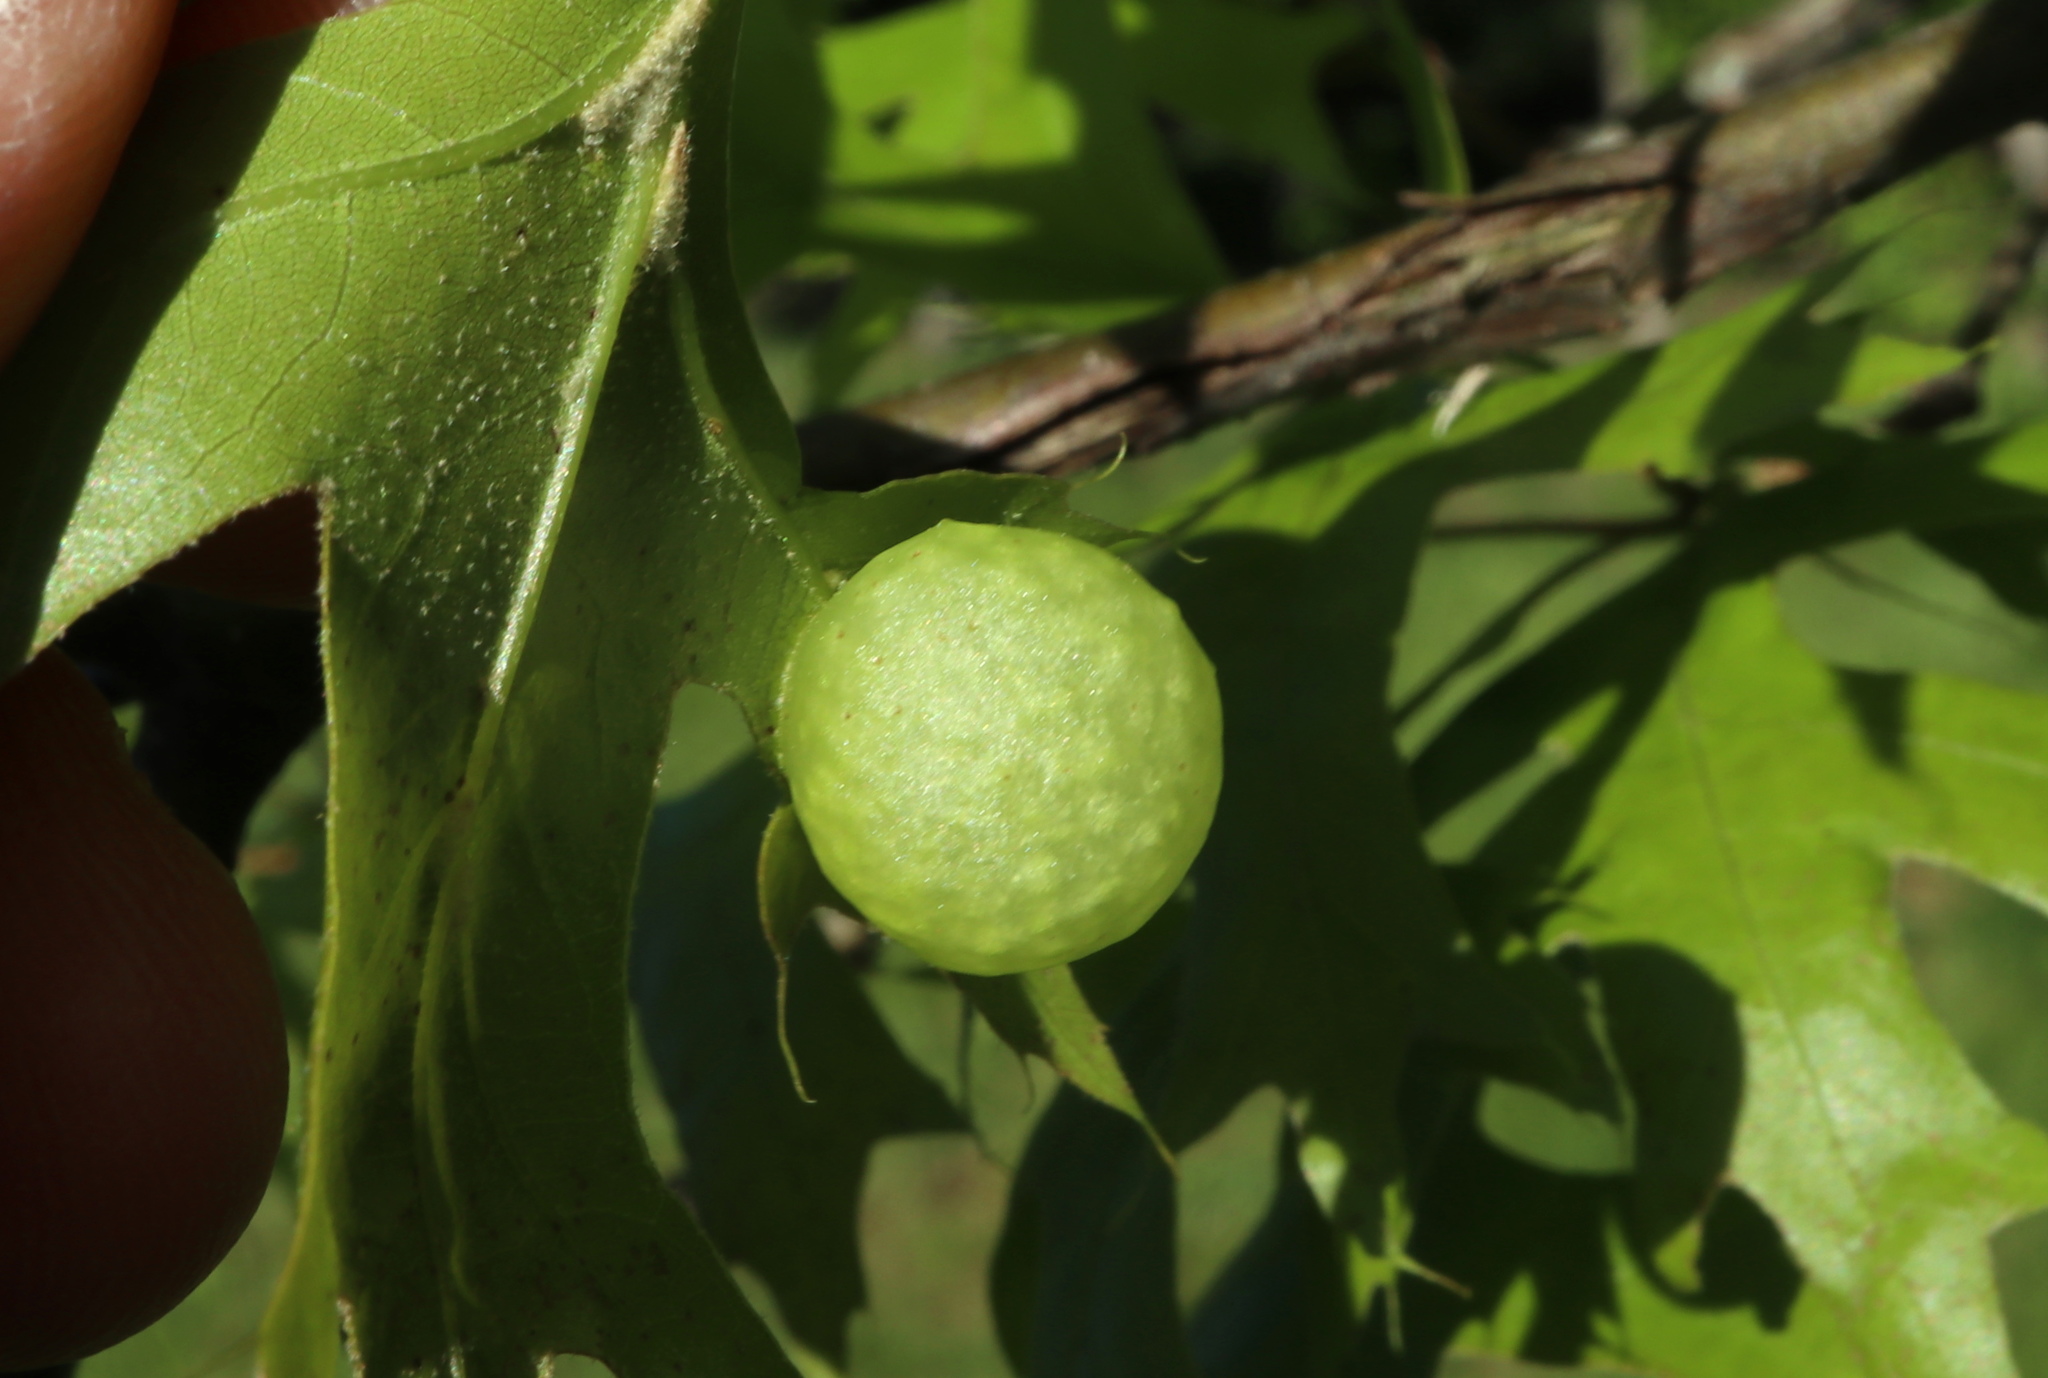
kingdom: Animalia
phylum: Arthropoda
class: Insecta
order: Hymenoptera
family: Cynipidae
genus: Amphibolips
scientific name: Amphibolips
